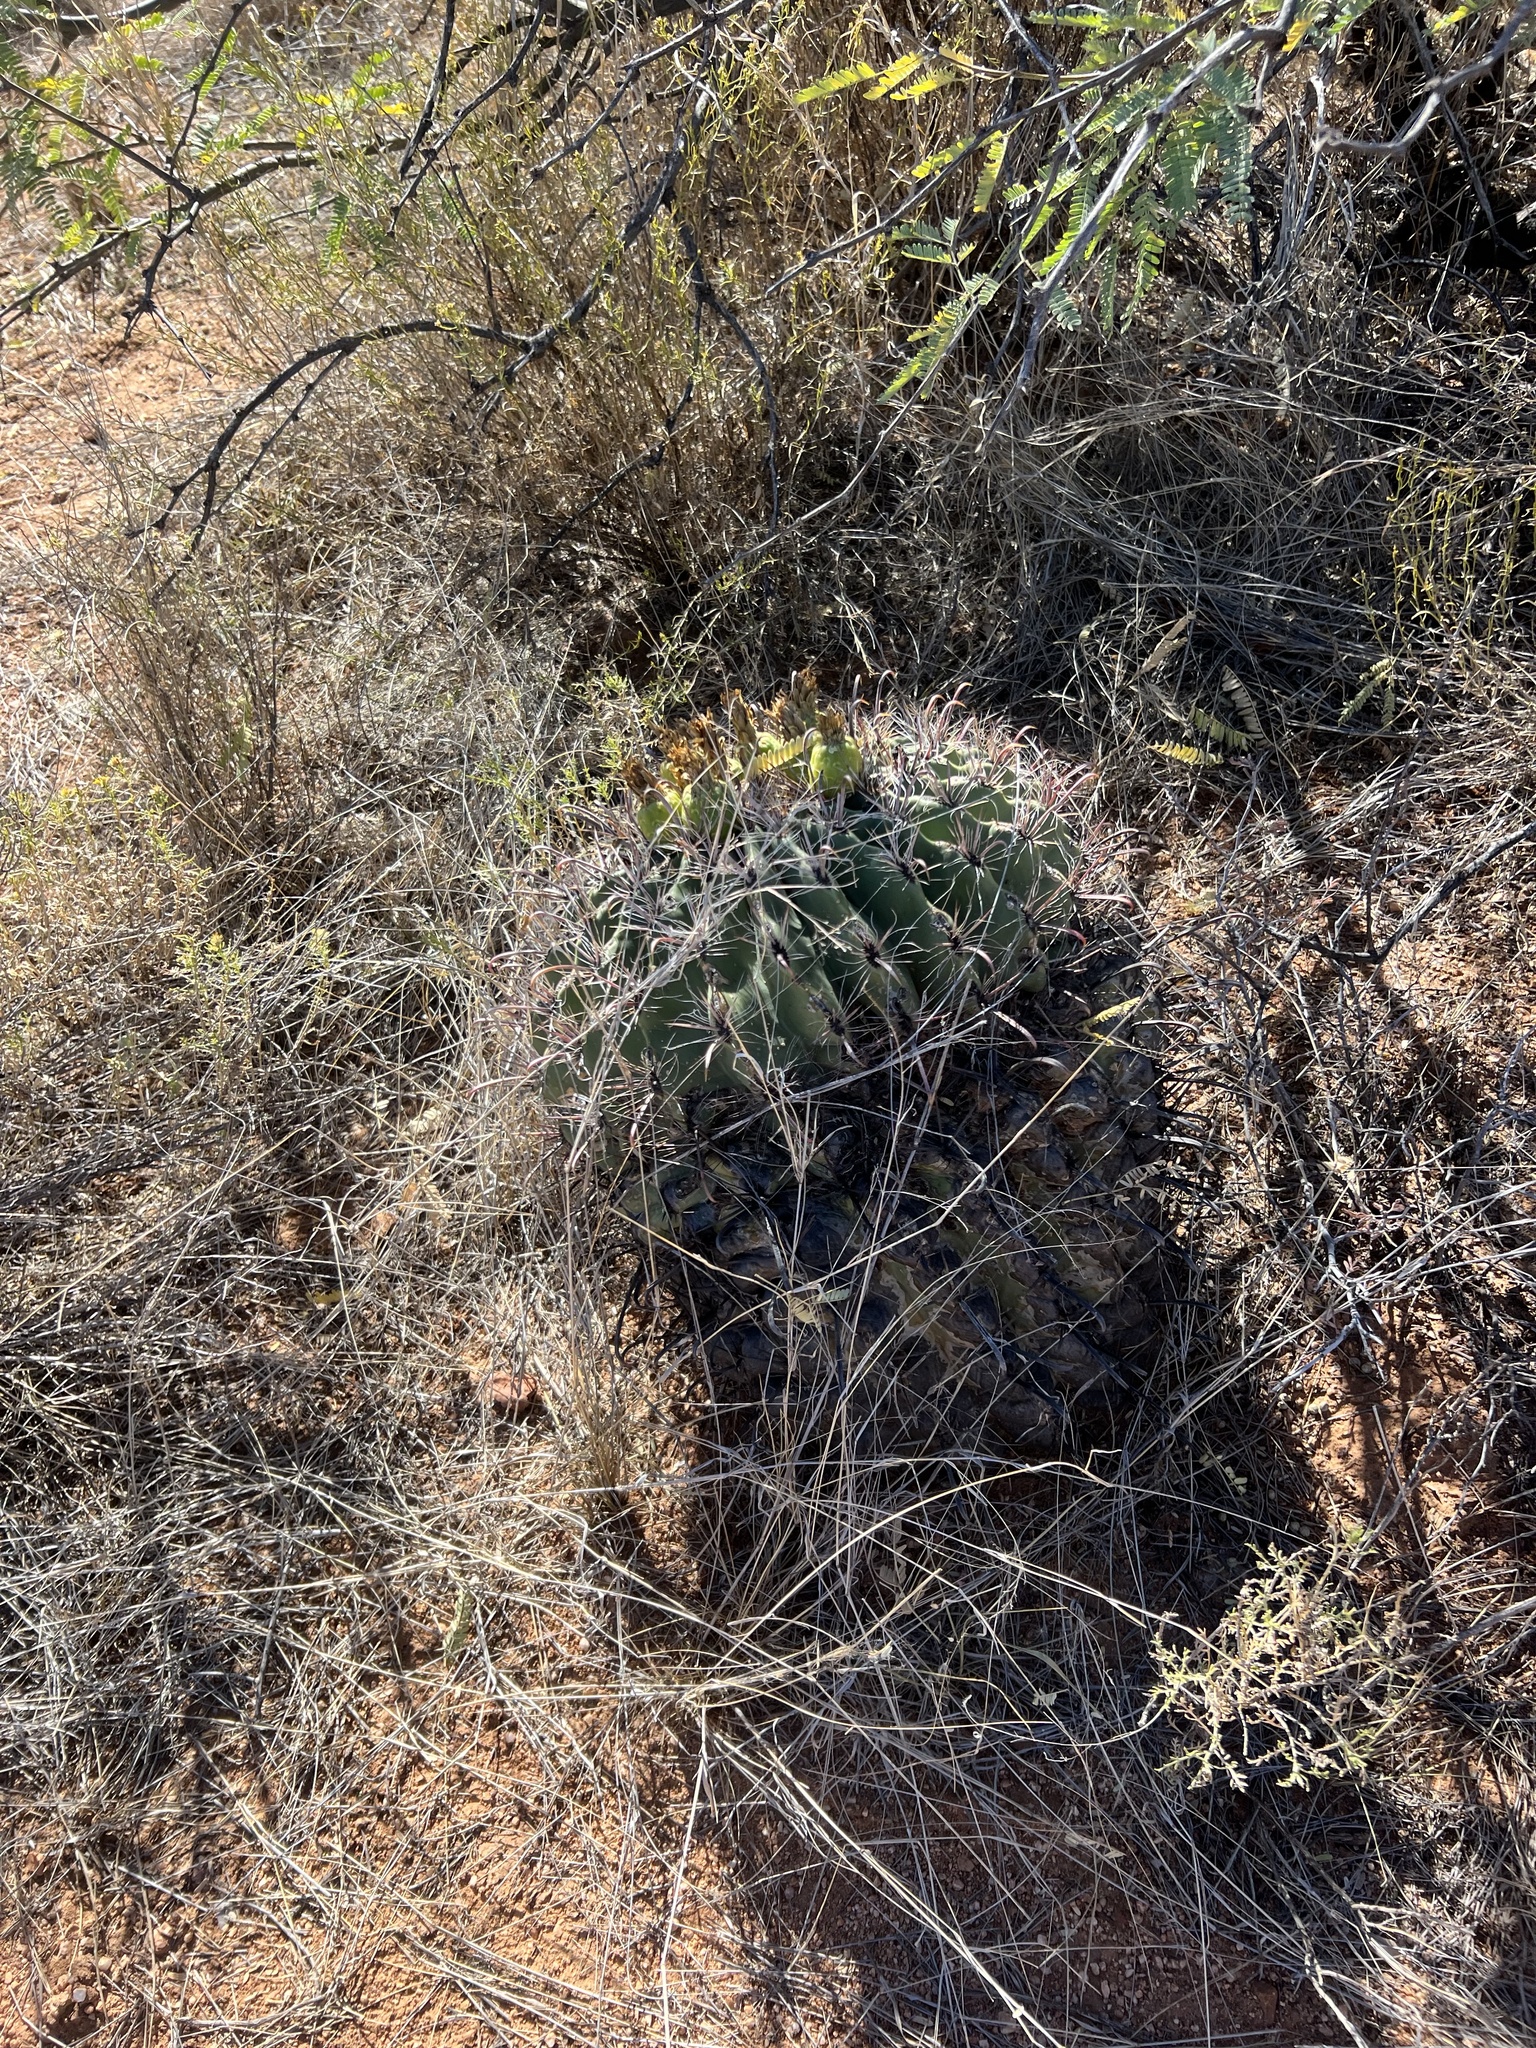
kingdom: Plantae
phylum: Tracheophyta
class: Magnoliopsida
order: Caryophyllales
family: Cactaceae
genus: Ferocactus
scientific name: Ferocactus wislizeni
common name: Candy barrel cactus
